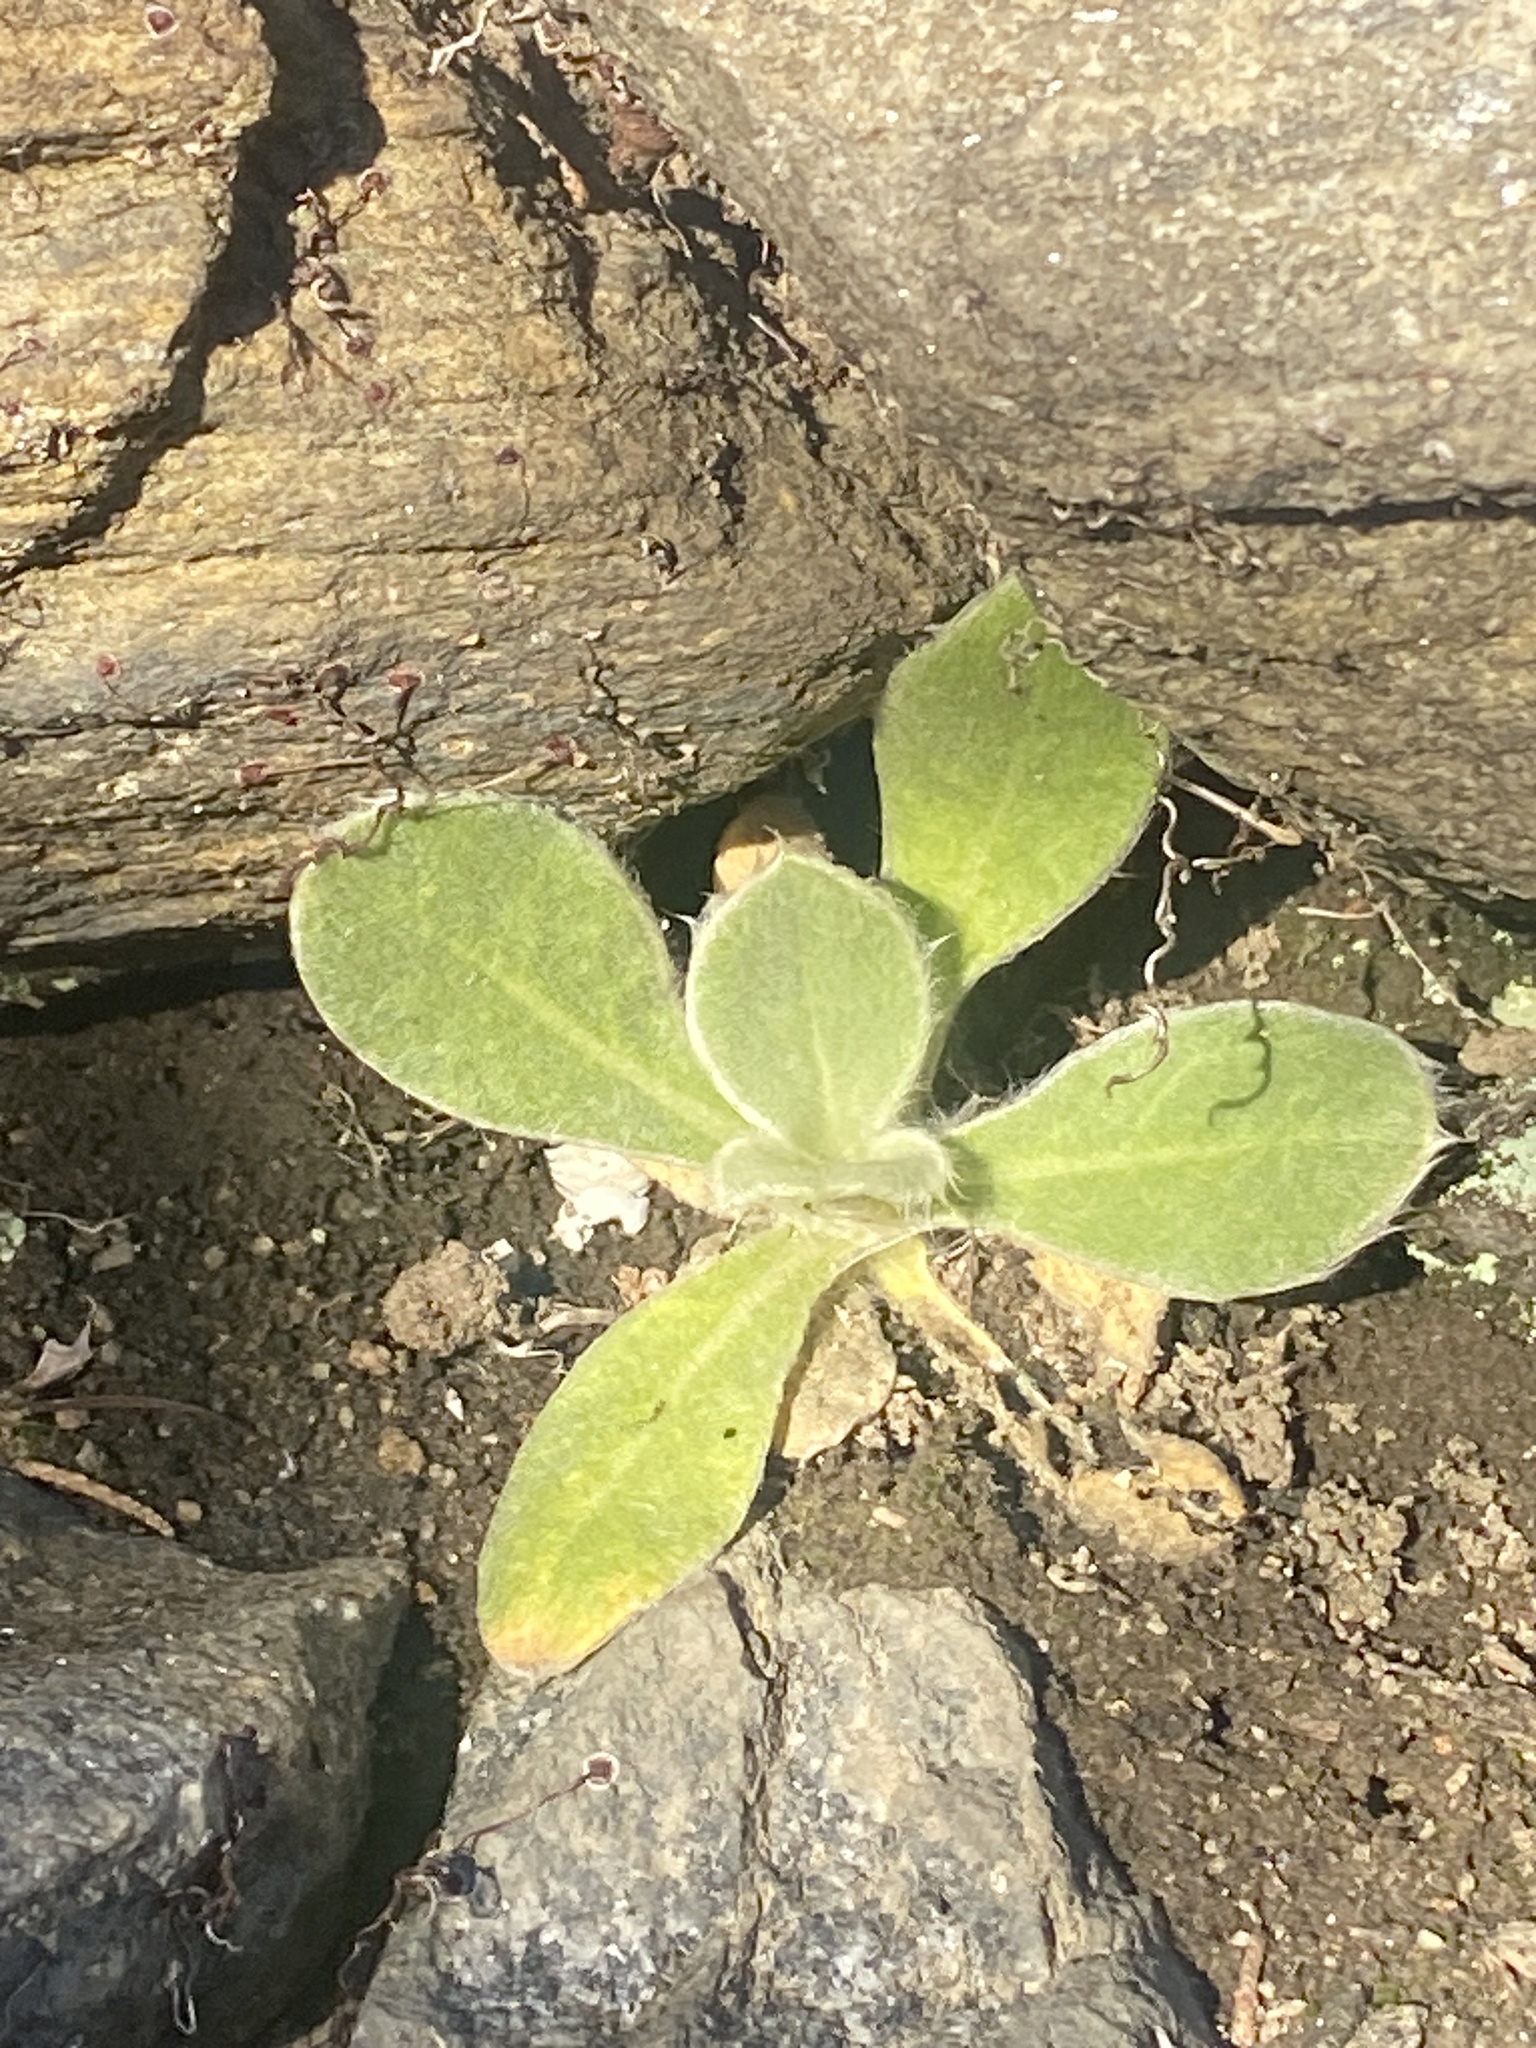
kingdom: Plantae
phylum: Tracheophyta
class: Magnoliopsida
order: Lamiales
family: Scrophulariaceae
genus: Verbascum
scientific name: Verbascum thapsus
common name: Common mullein
